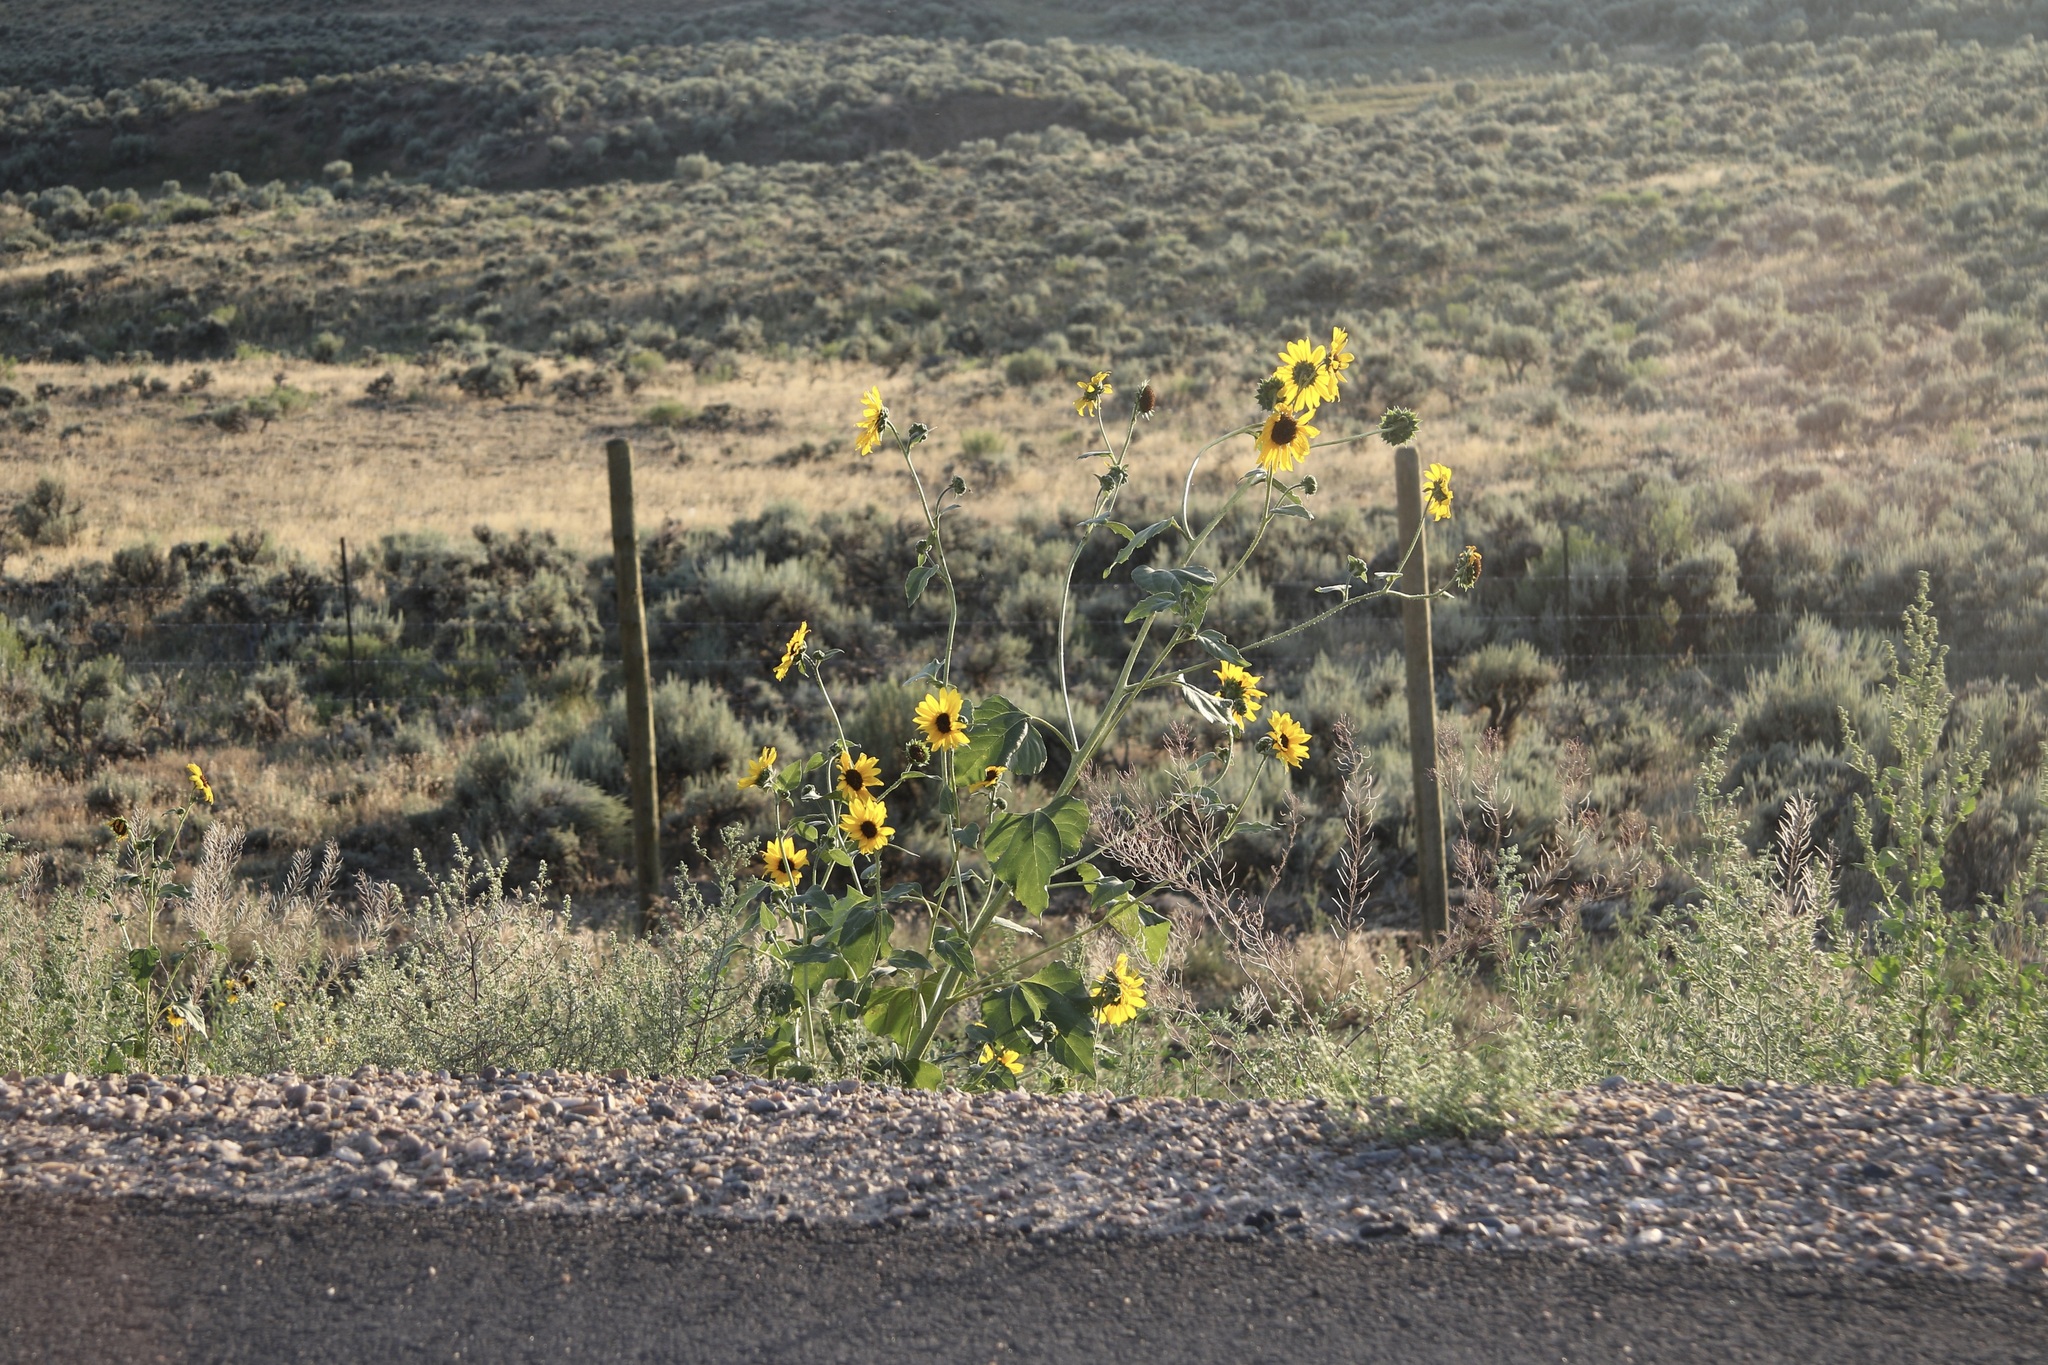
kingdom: Plantae
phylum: Tracheophyta
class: Magnoliopsida
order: Asterales
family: Asteraceae
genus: Helianthus
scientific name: Helianthus annuus
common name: Sunflower
